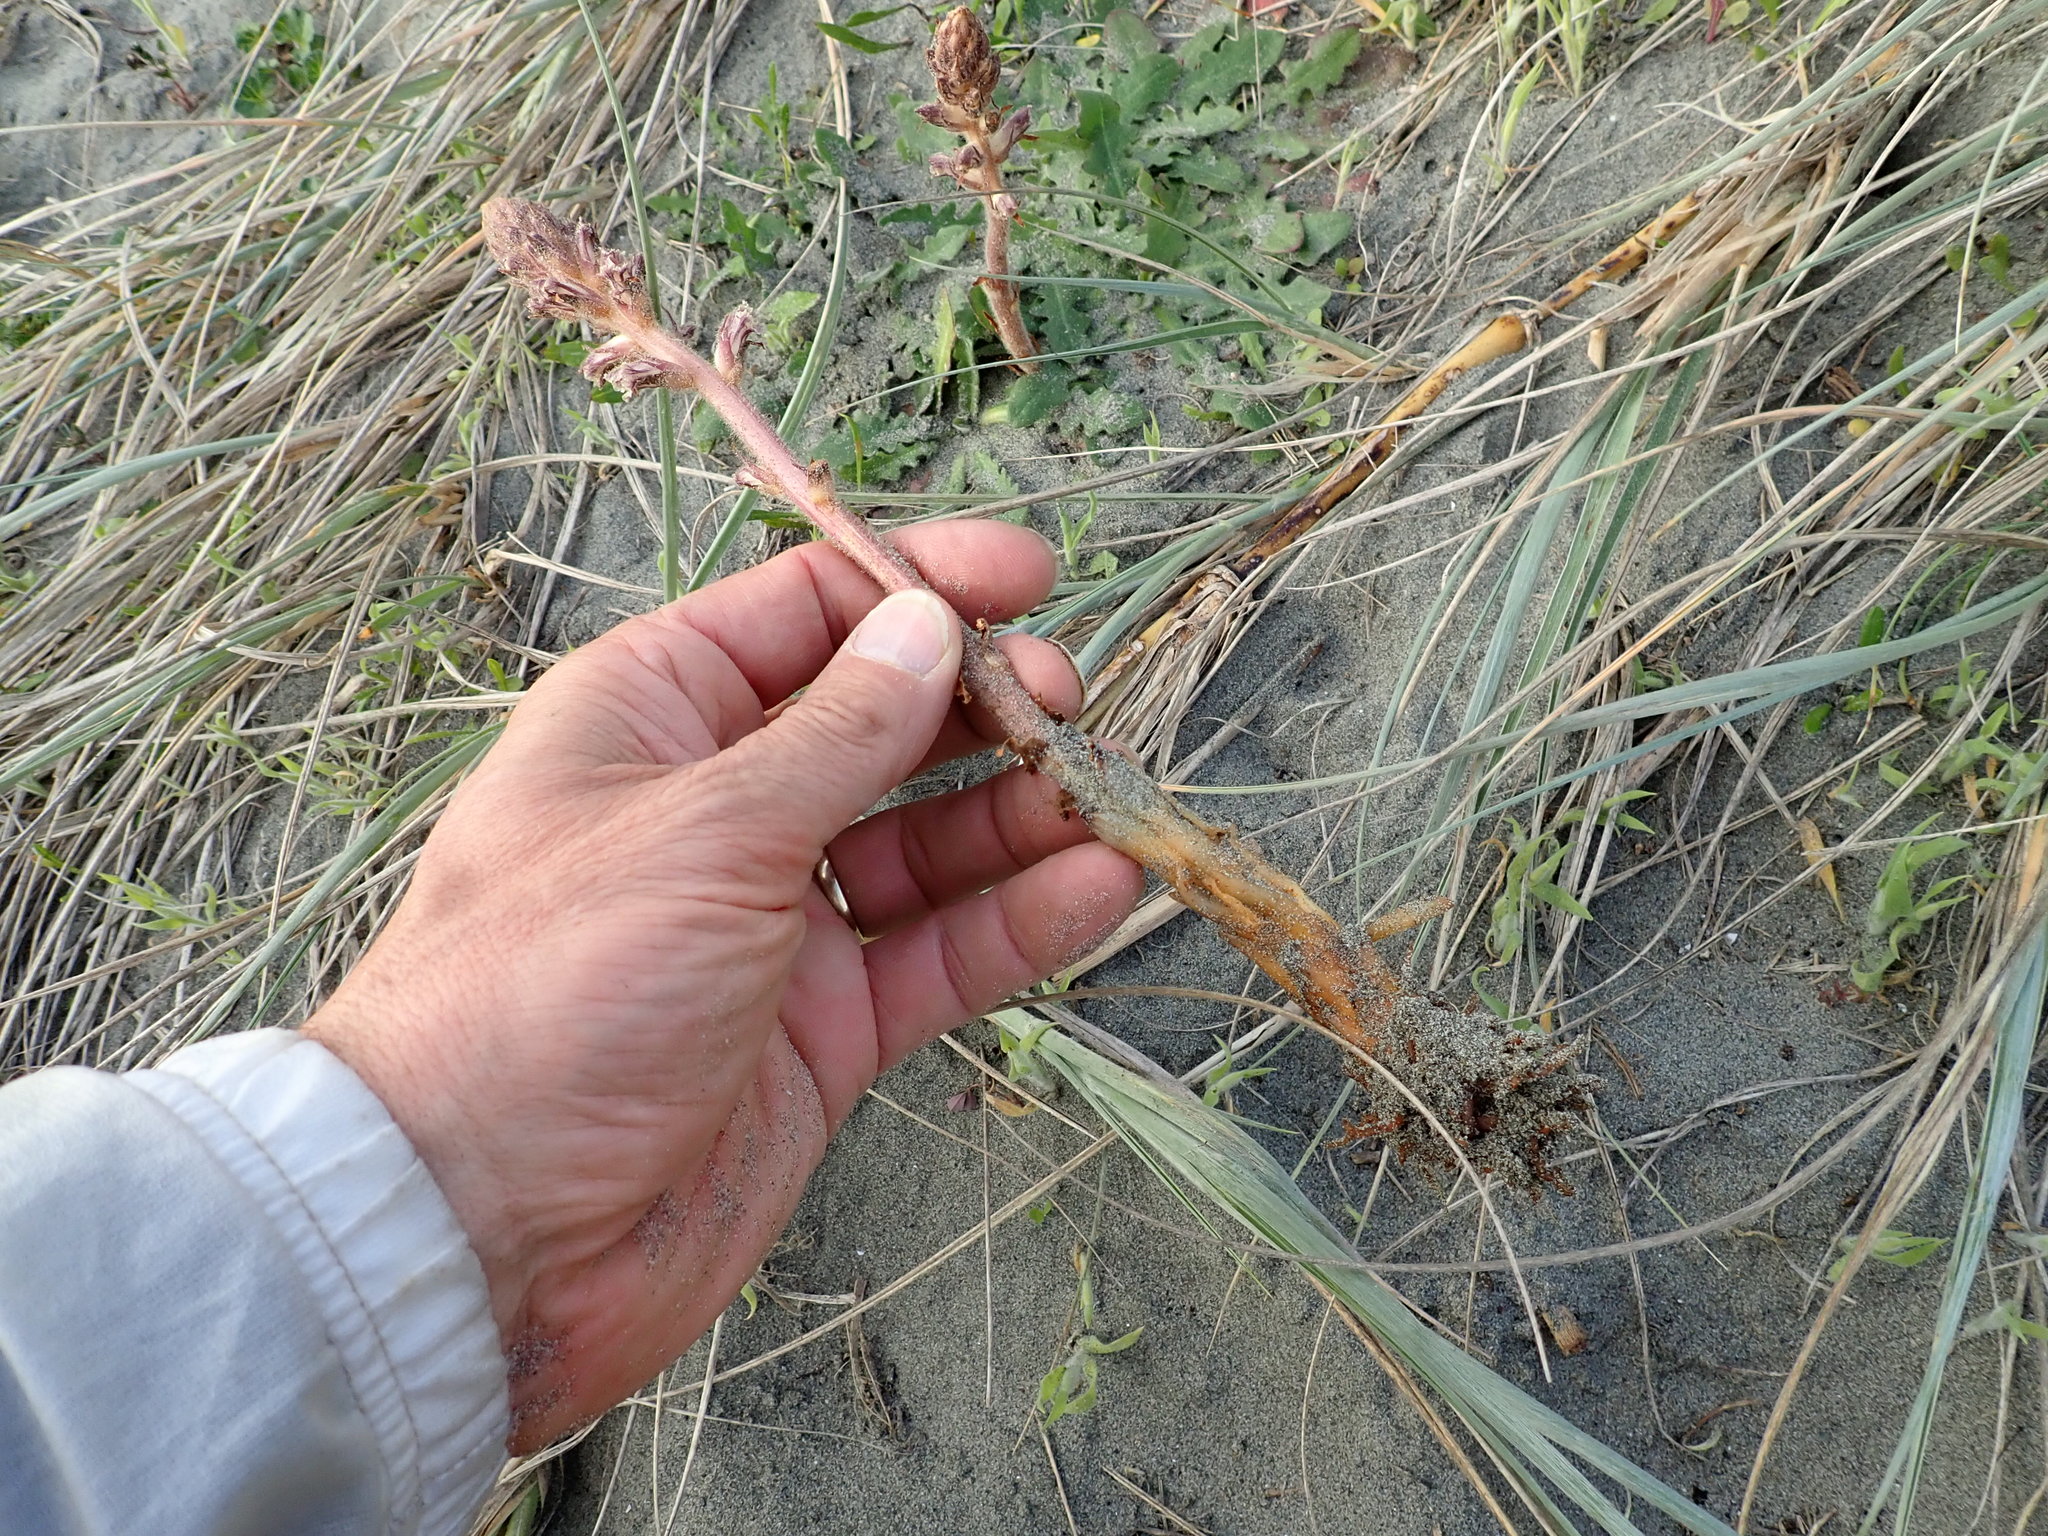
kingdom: Plantae
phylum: Tracheophyta
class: Magnoliopsida
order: Lamiales
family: Orobanchaceae
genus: Orobanche
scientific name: Orobanche minor
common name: Common broomrape
